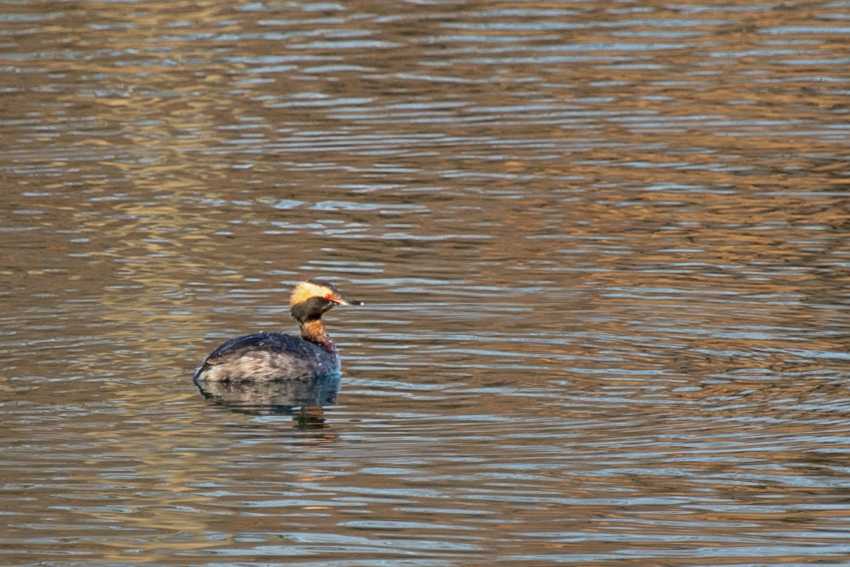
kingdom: Animalia
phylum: Chordata
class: Aves
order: Podicipediformes
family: Podicipedidae
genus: Podiceps
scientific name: Podiceps auritus
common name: Horned grebe
